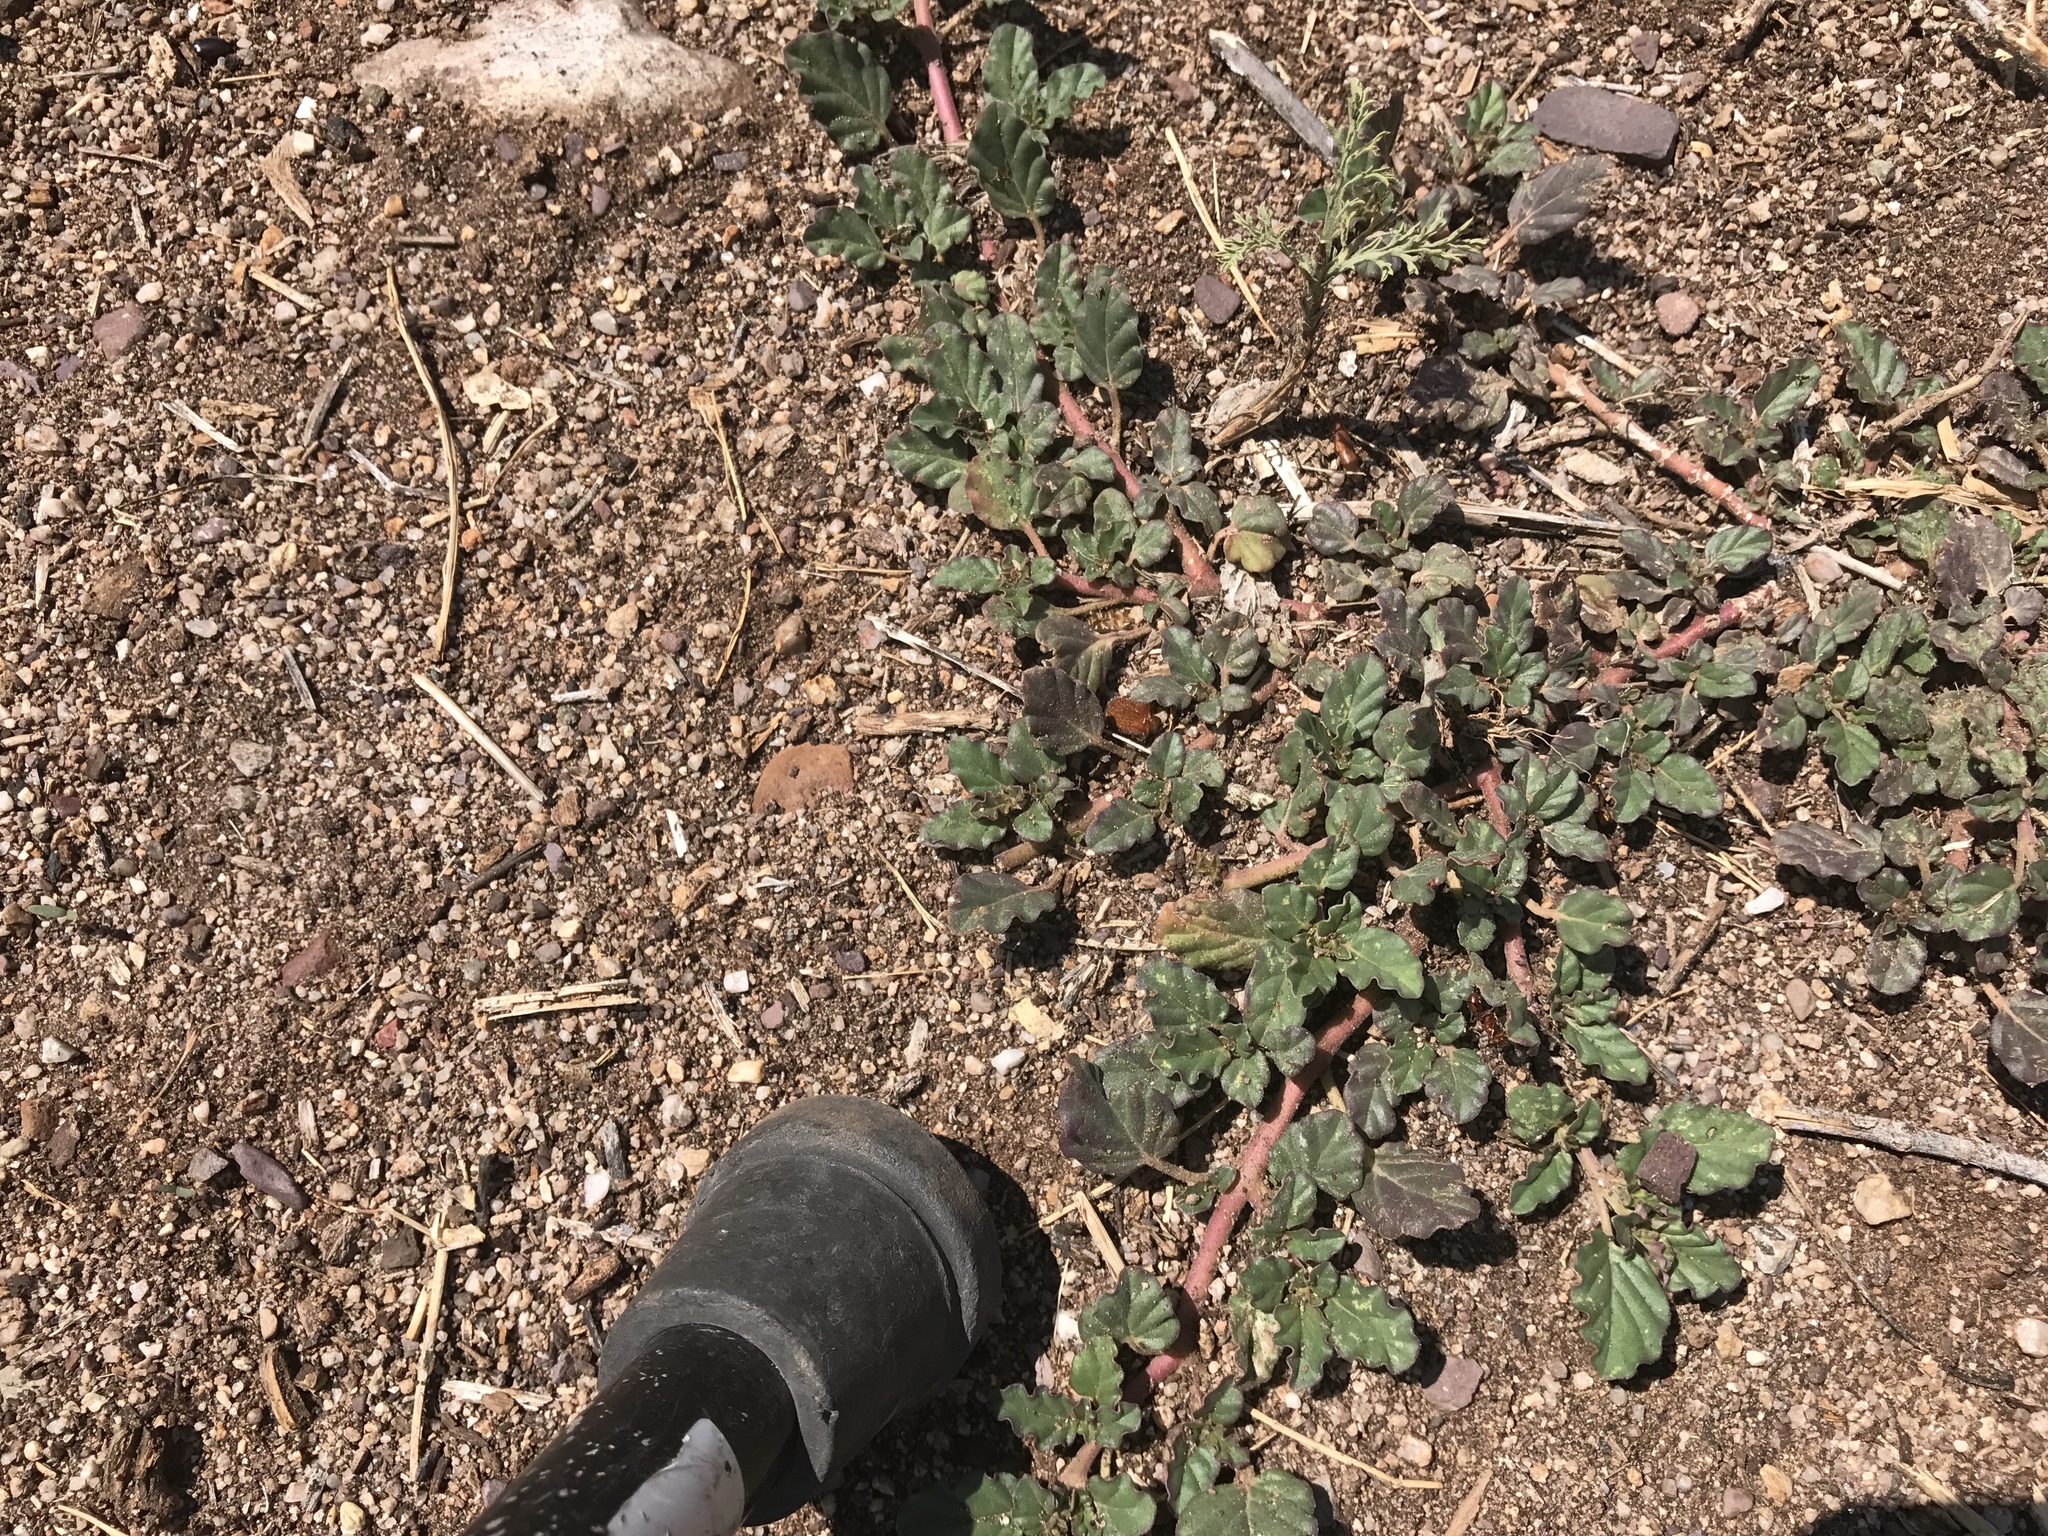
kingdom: Plantae
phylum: Tracheophyta
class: Magnoliopsida
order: Caryophyllales
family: Nyctaginaceae
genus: Boerhavia
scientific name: Boerhavia coccinea
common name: Scarlet spiderling
